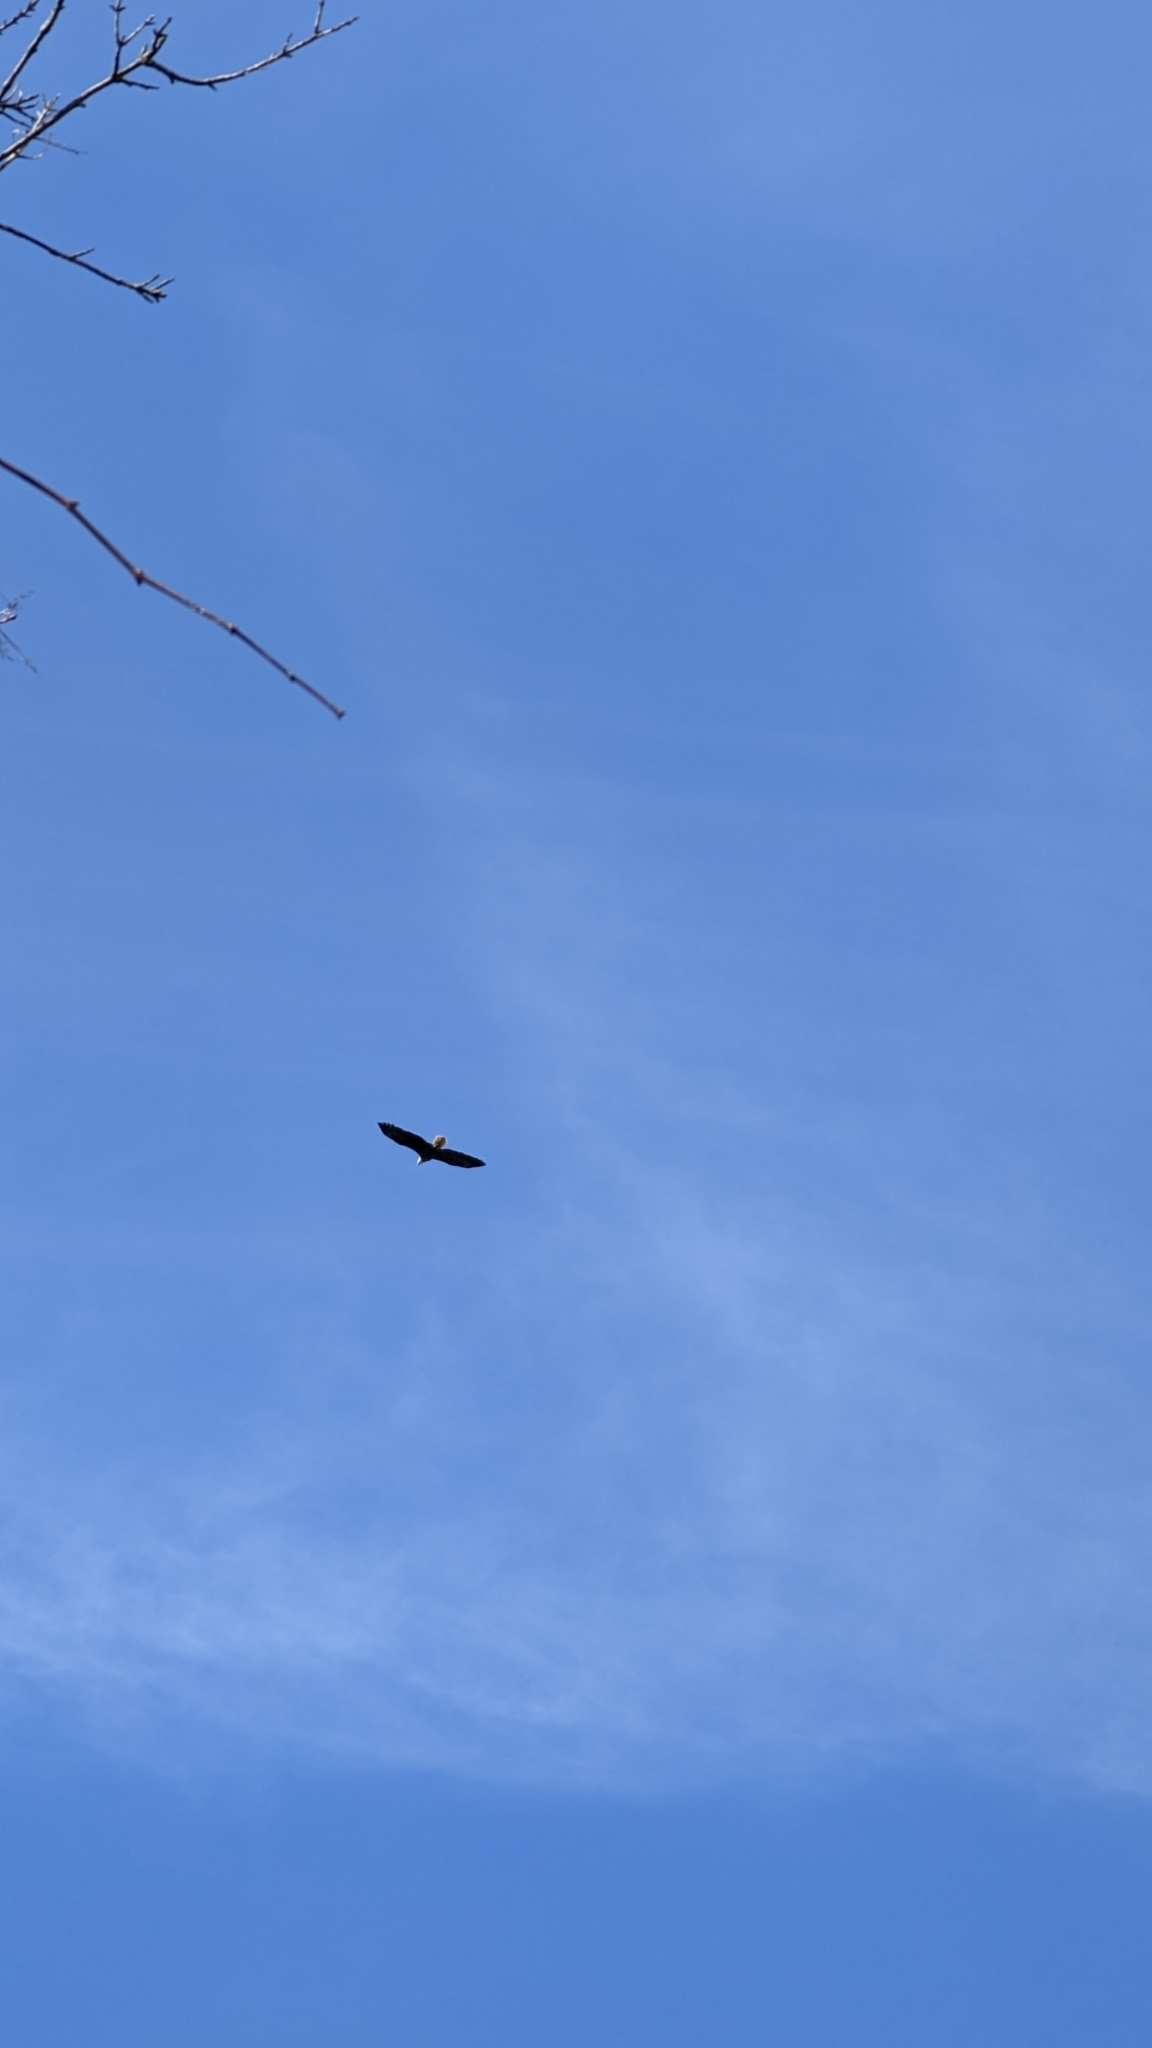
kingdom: Animalia
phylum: Chordata
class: Aves
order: Accipitriformes
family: Accipitridae
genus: Haliaeetus
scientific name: Haliaeetus leucocephalus
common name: Bald eagle
